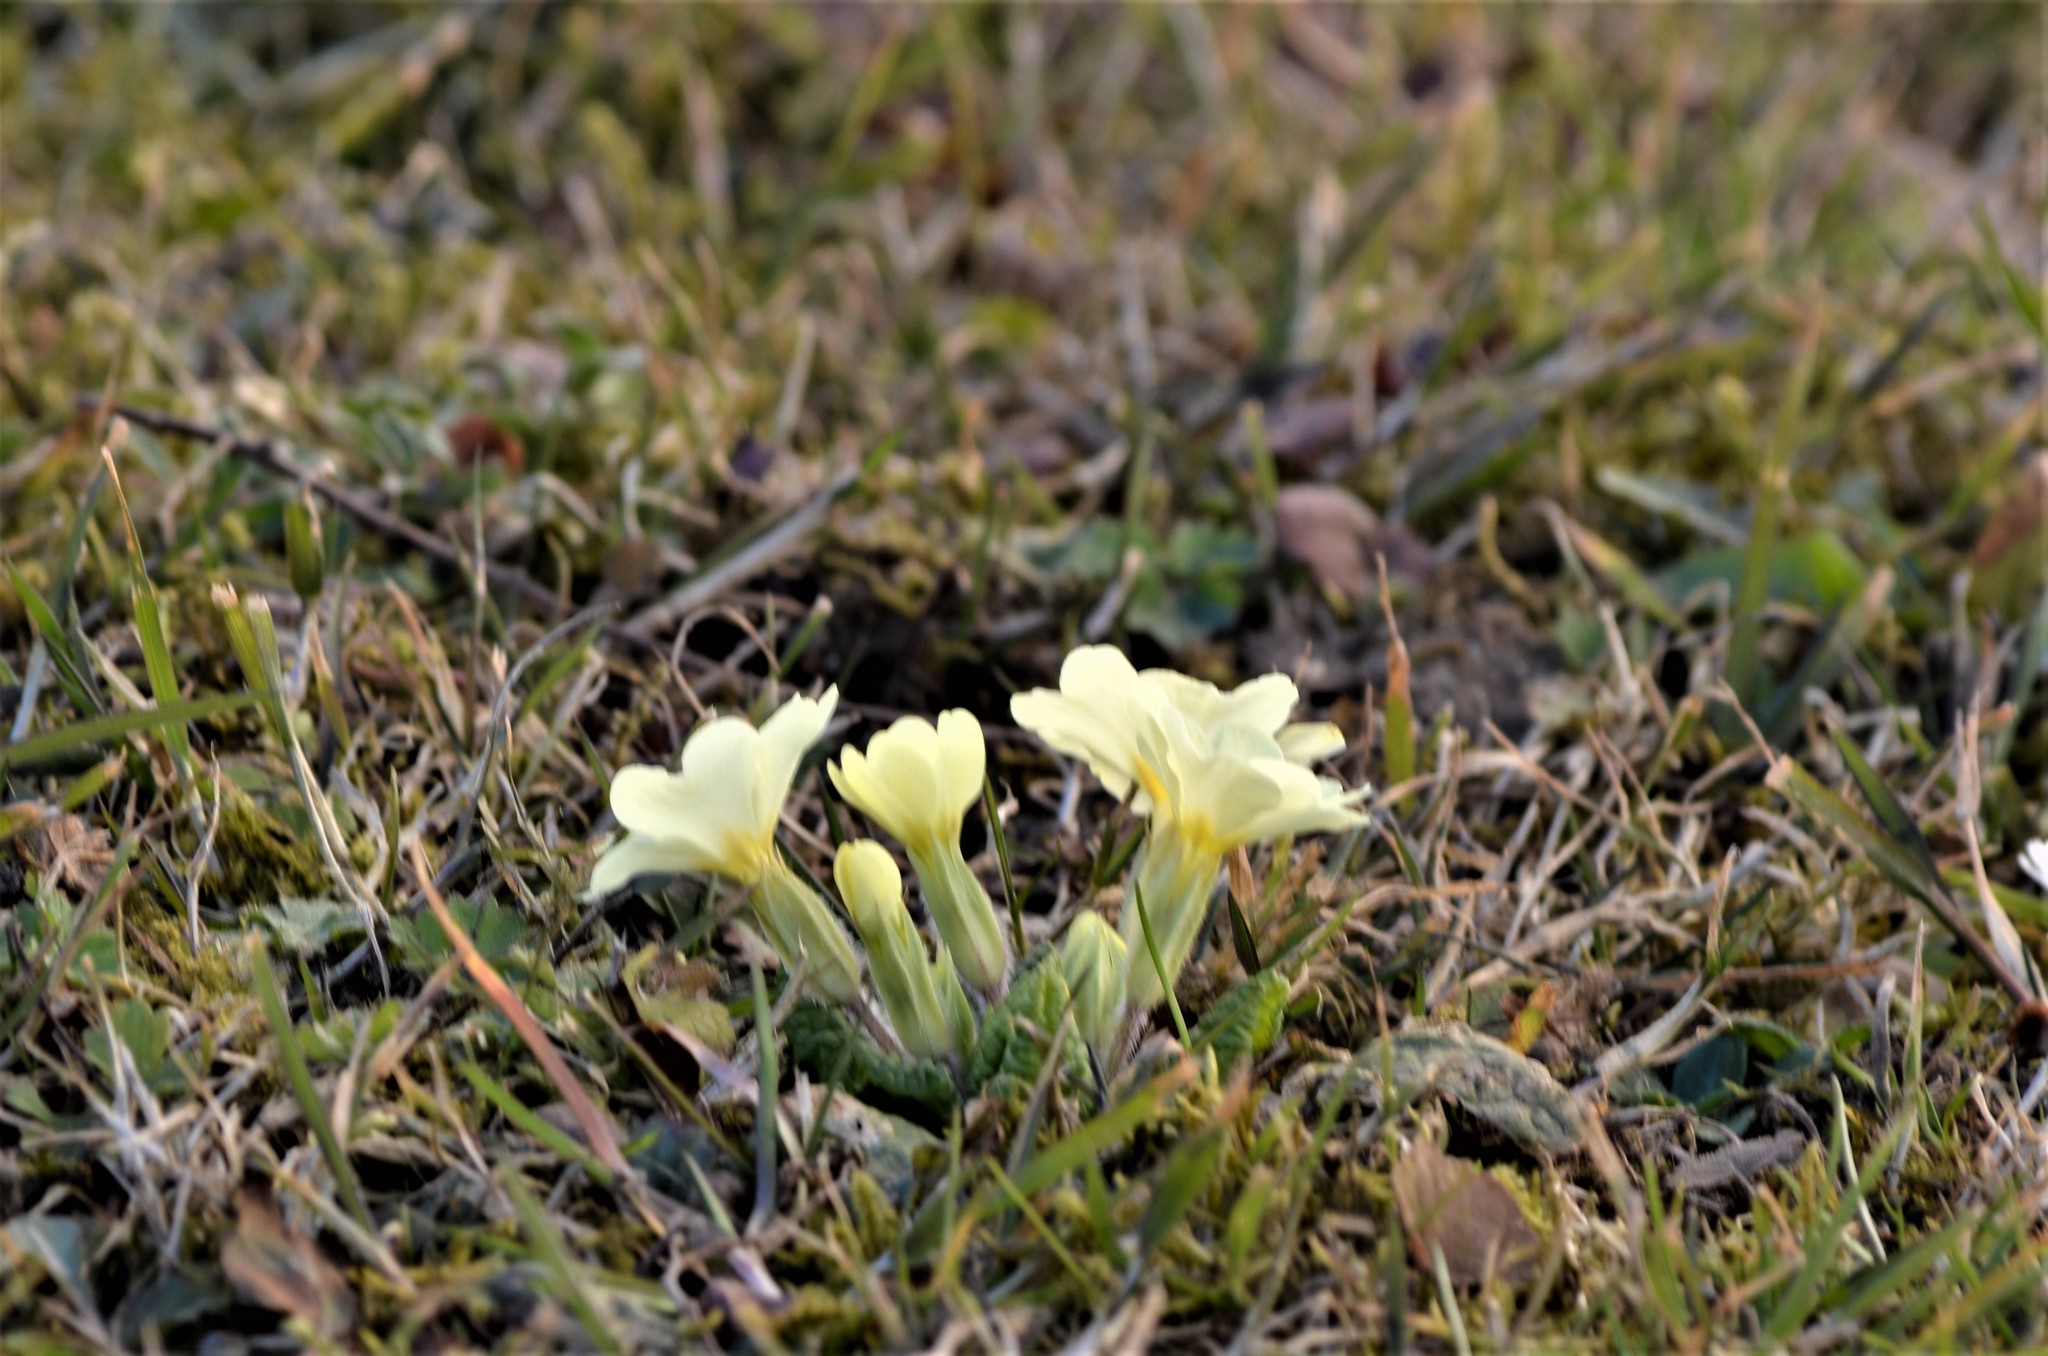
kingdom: Plantae
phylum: Tracheophyta
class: Magnoliopsida
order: Ericales
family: Primulaceae
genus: Primula
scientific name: Primula vulgaris
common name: Primrose
